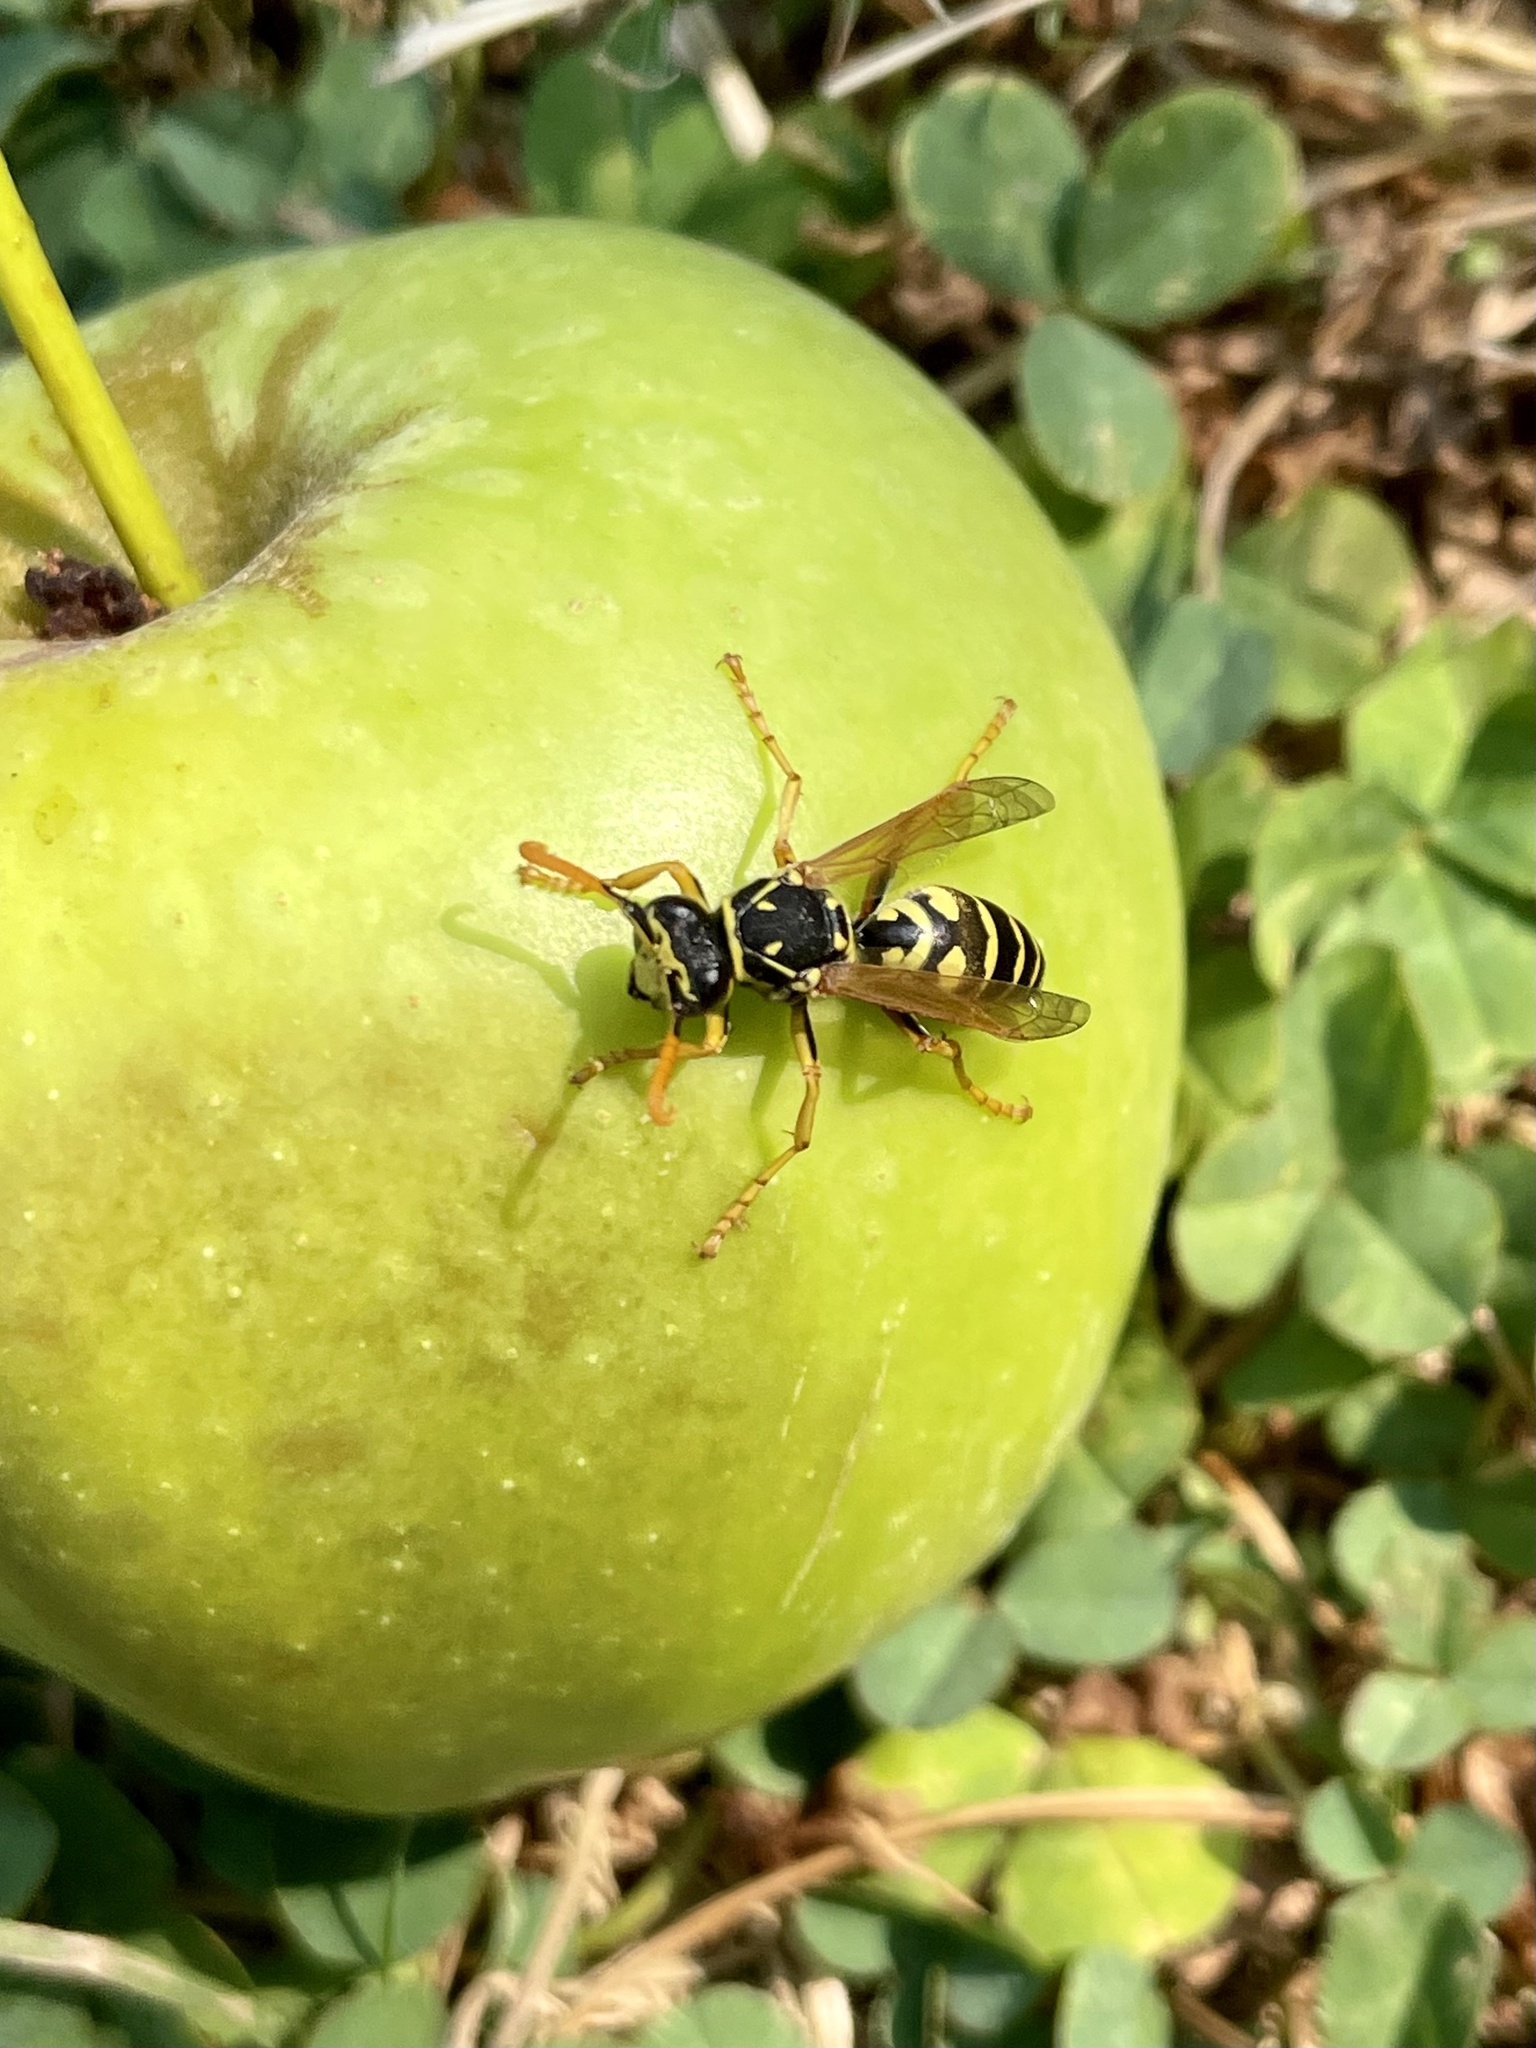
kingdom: Animalia
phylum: Arthropoda
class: Insecta
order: Hymenoptera
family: Eumenidae
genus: Polistes
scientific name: Polistes dominula
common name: Paper wasp
